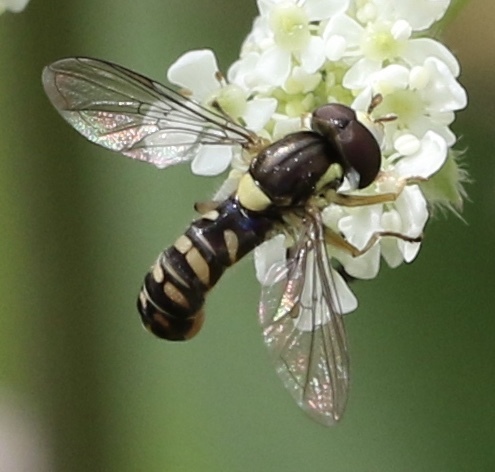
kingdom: Animalia
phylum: Arthropoda
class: Insecta
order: Diptera
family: Syrphidae
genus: Sphaerophoria
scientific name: Sphaerophoria rueppellii
